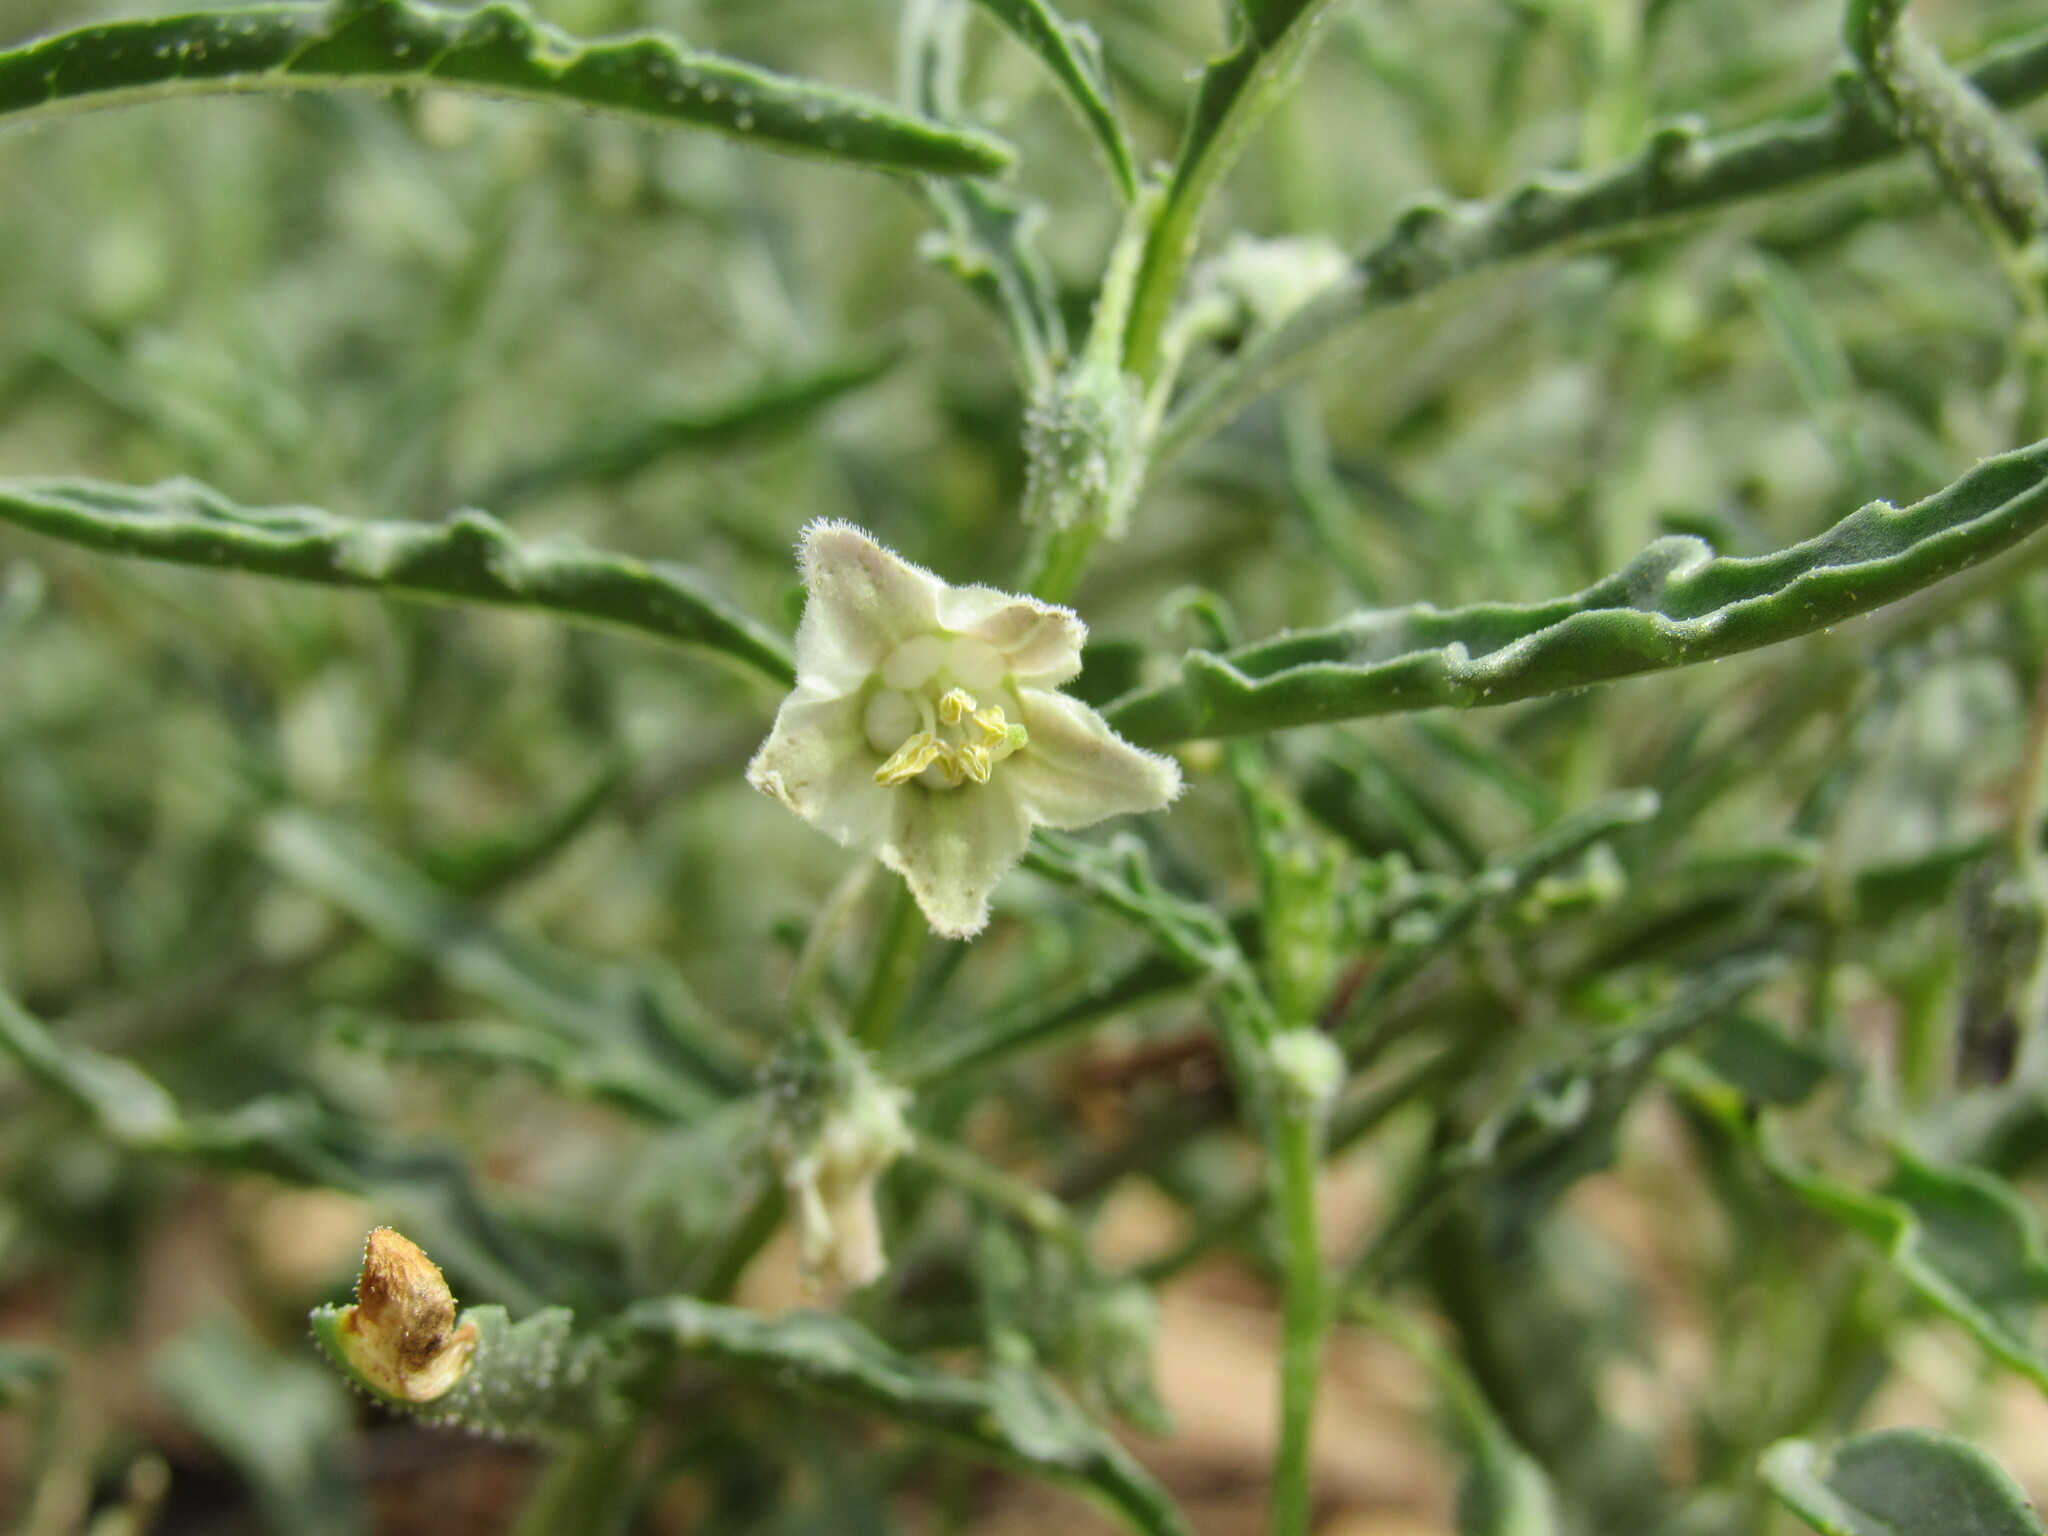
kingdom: Plantae
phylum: Tracheophyta
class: Magnoliopsida
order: Solanales
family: Solanaceae
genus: Chamaesaracha
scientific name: Chamaesaracha coronopus
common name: Smooth chamaesaracha
